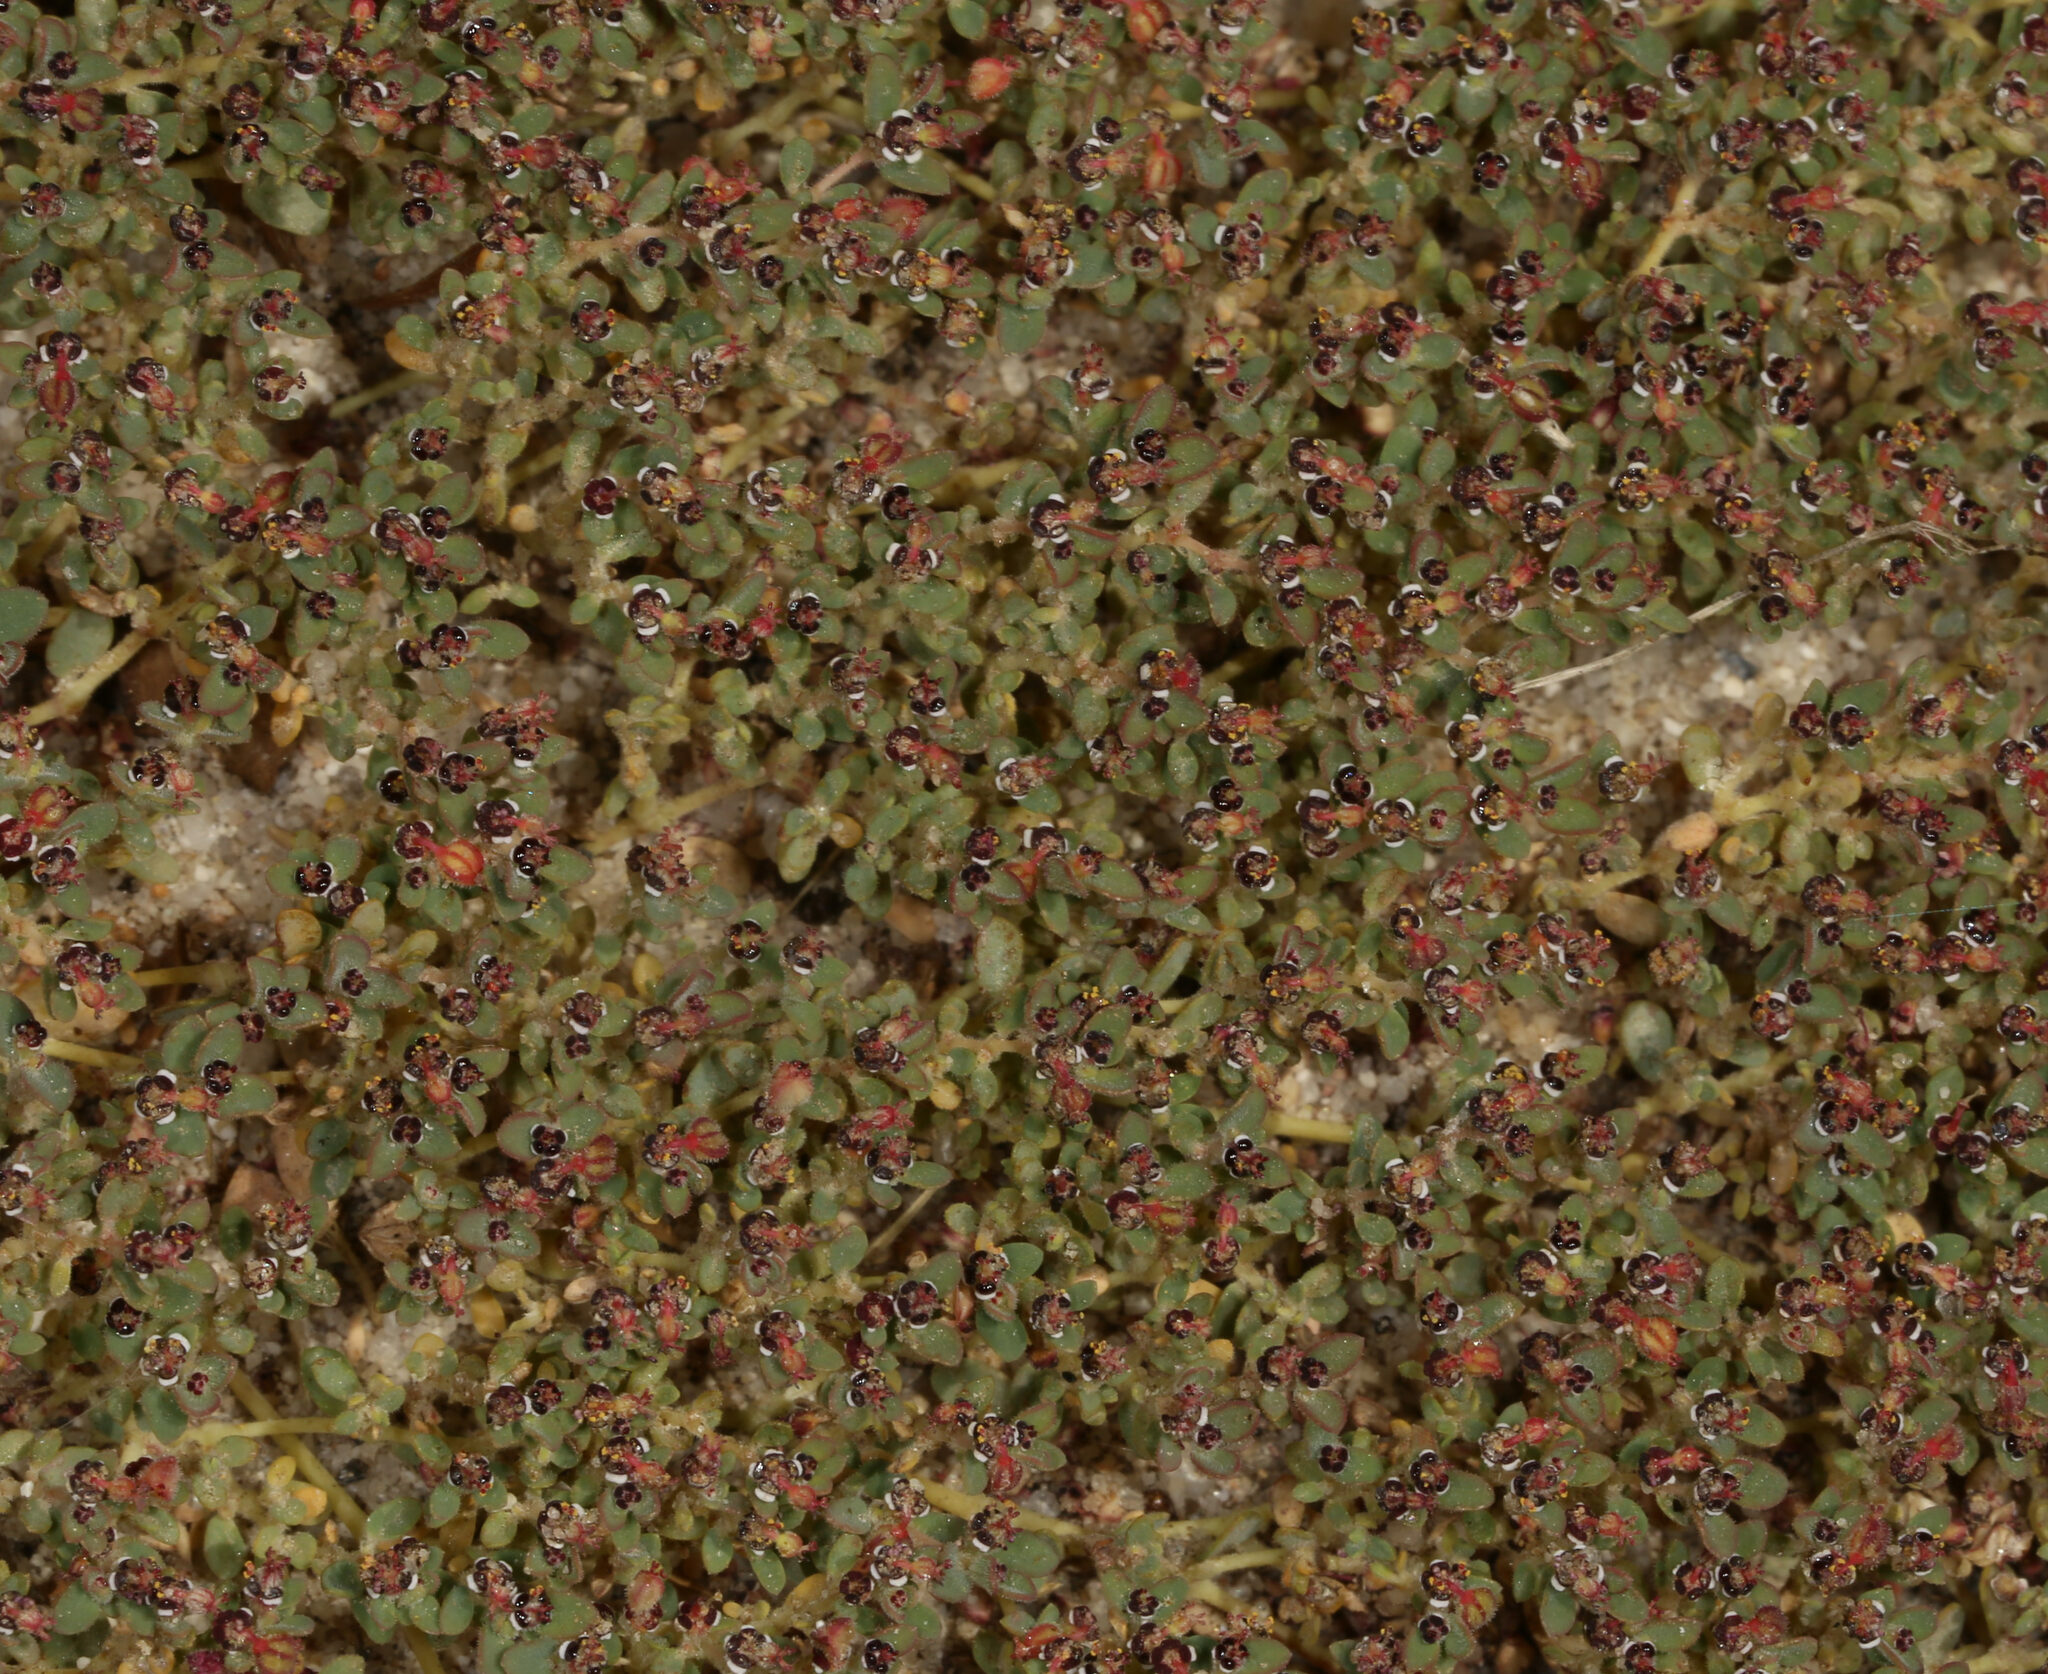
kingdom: Plantae
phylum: Tracheophyta
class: Magnoliopsida
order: Malpighiales
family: Euphorbiaceae
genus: Euphorbia
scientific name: Euphorbia polycarpa
